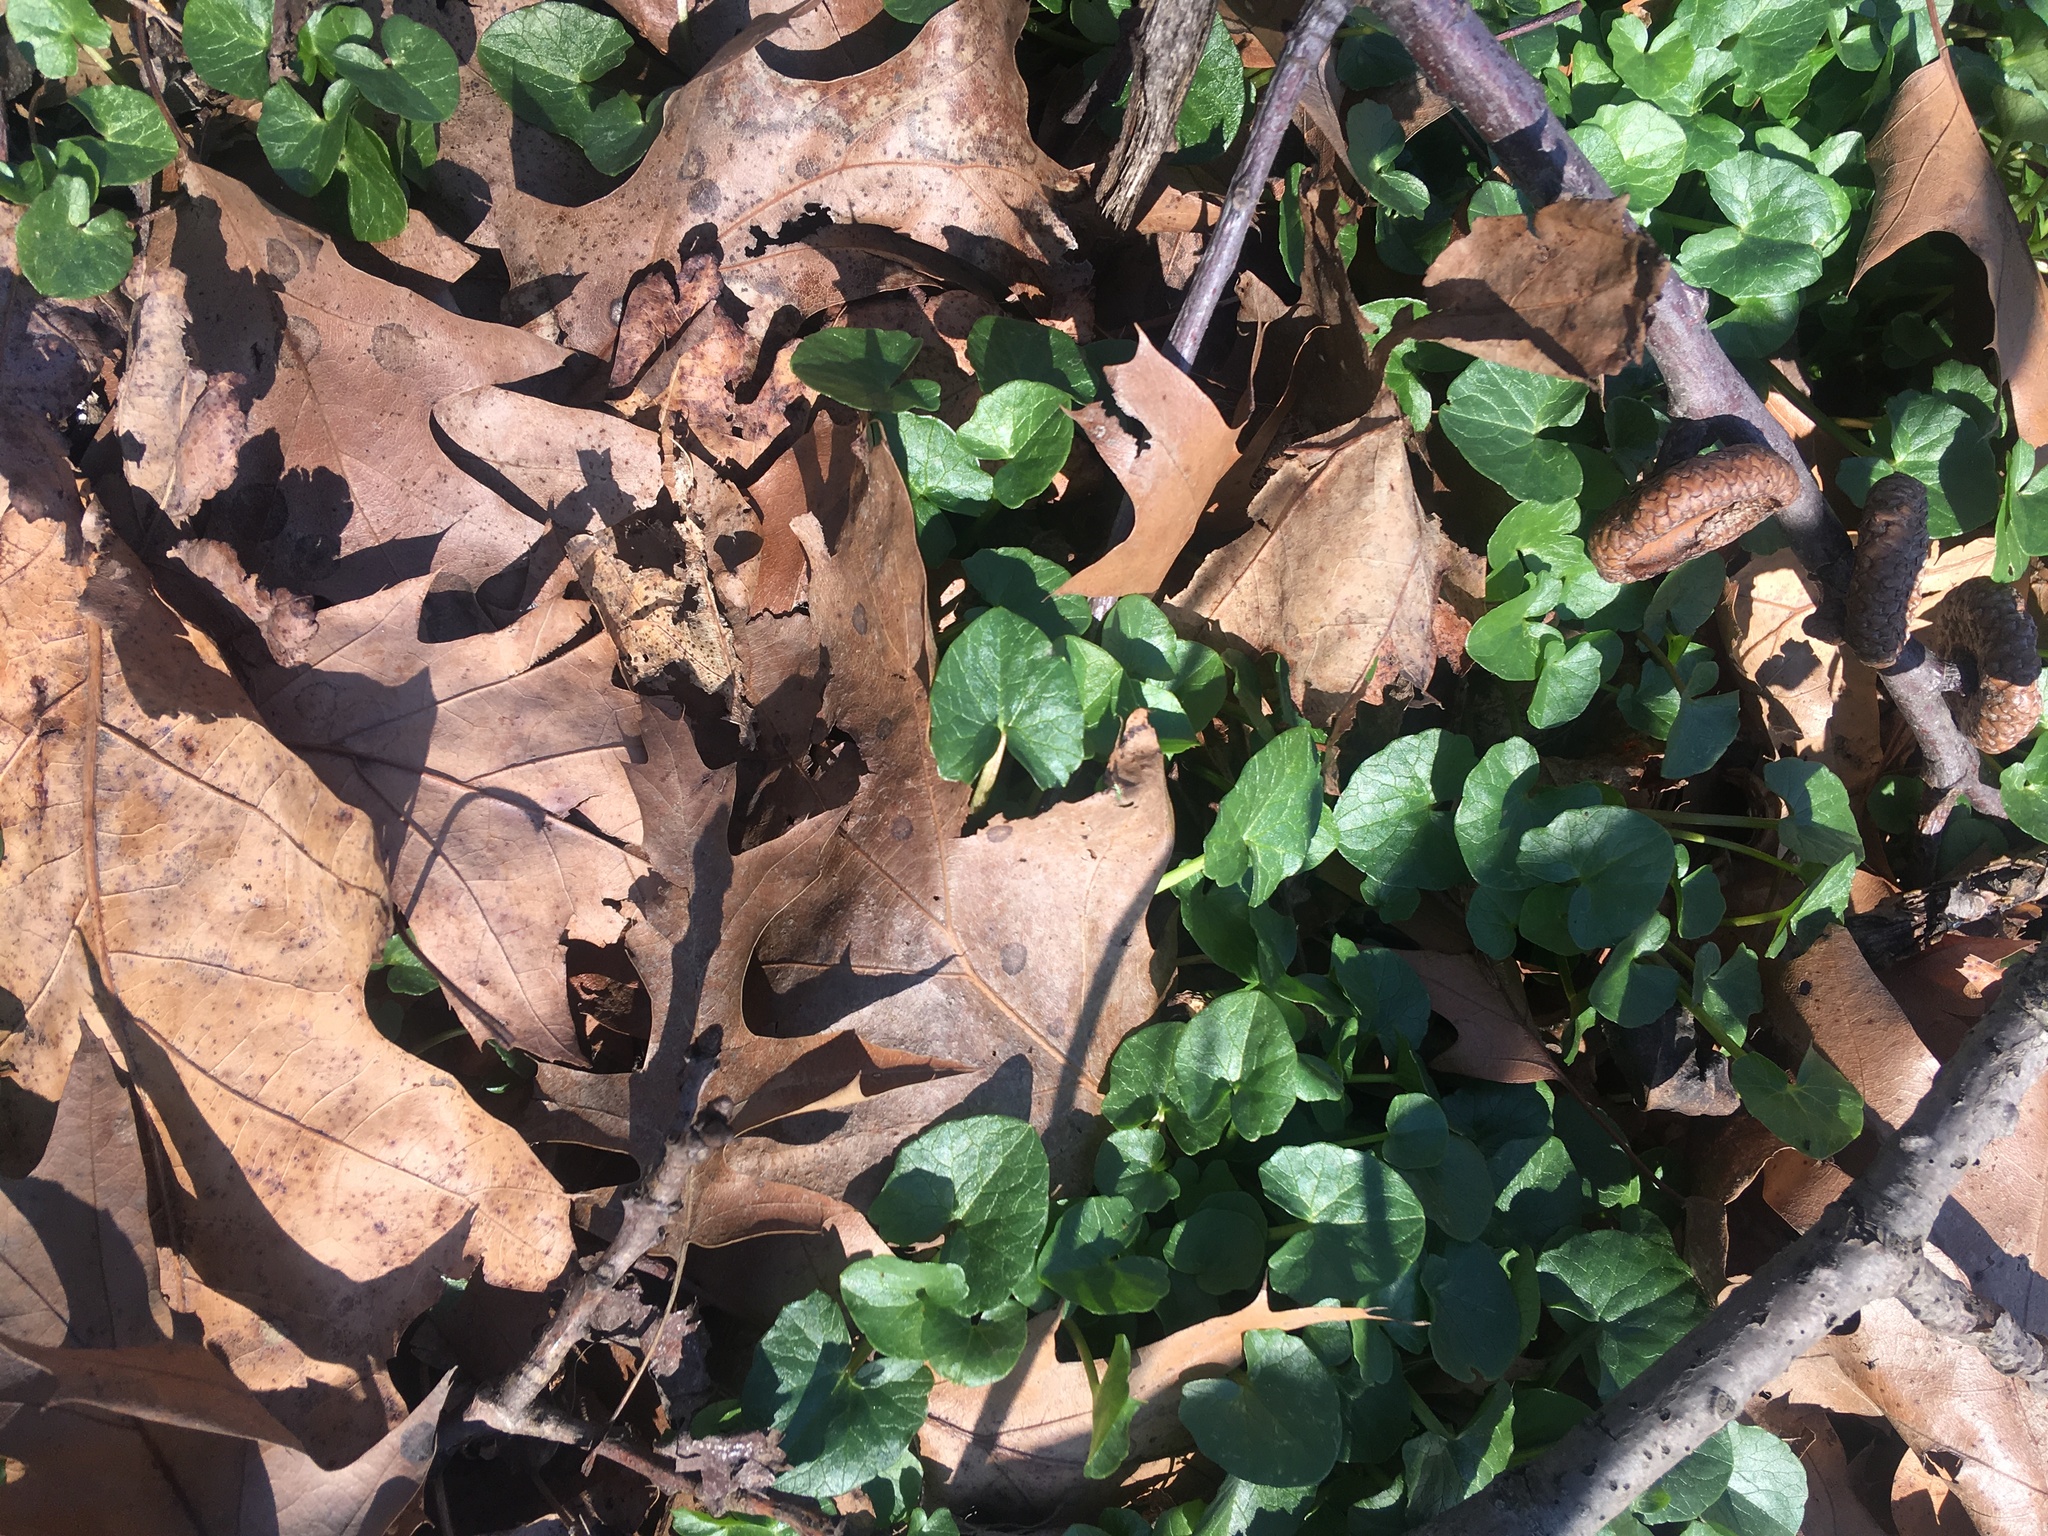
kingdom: Plantae
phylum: Tracheophyta
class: Magnoliopsida
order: Ranunculales
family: Ranunculaceae
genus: Ficaria
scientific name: Ficaria verna
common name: Lesser celandine
